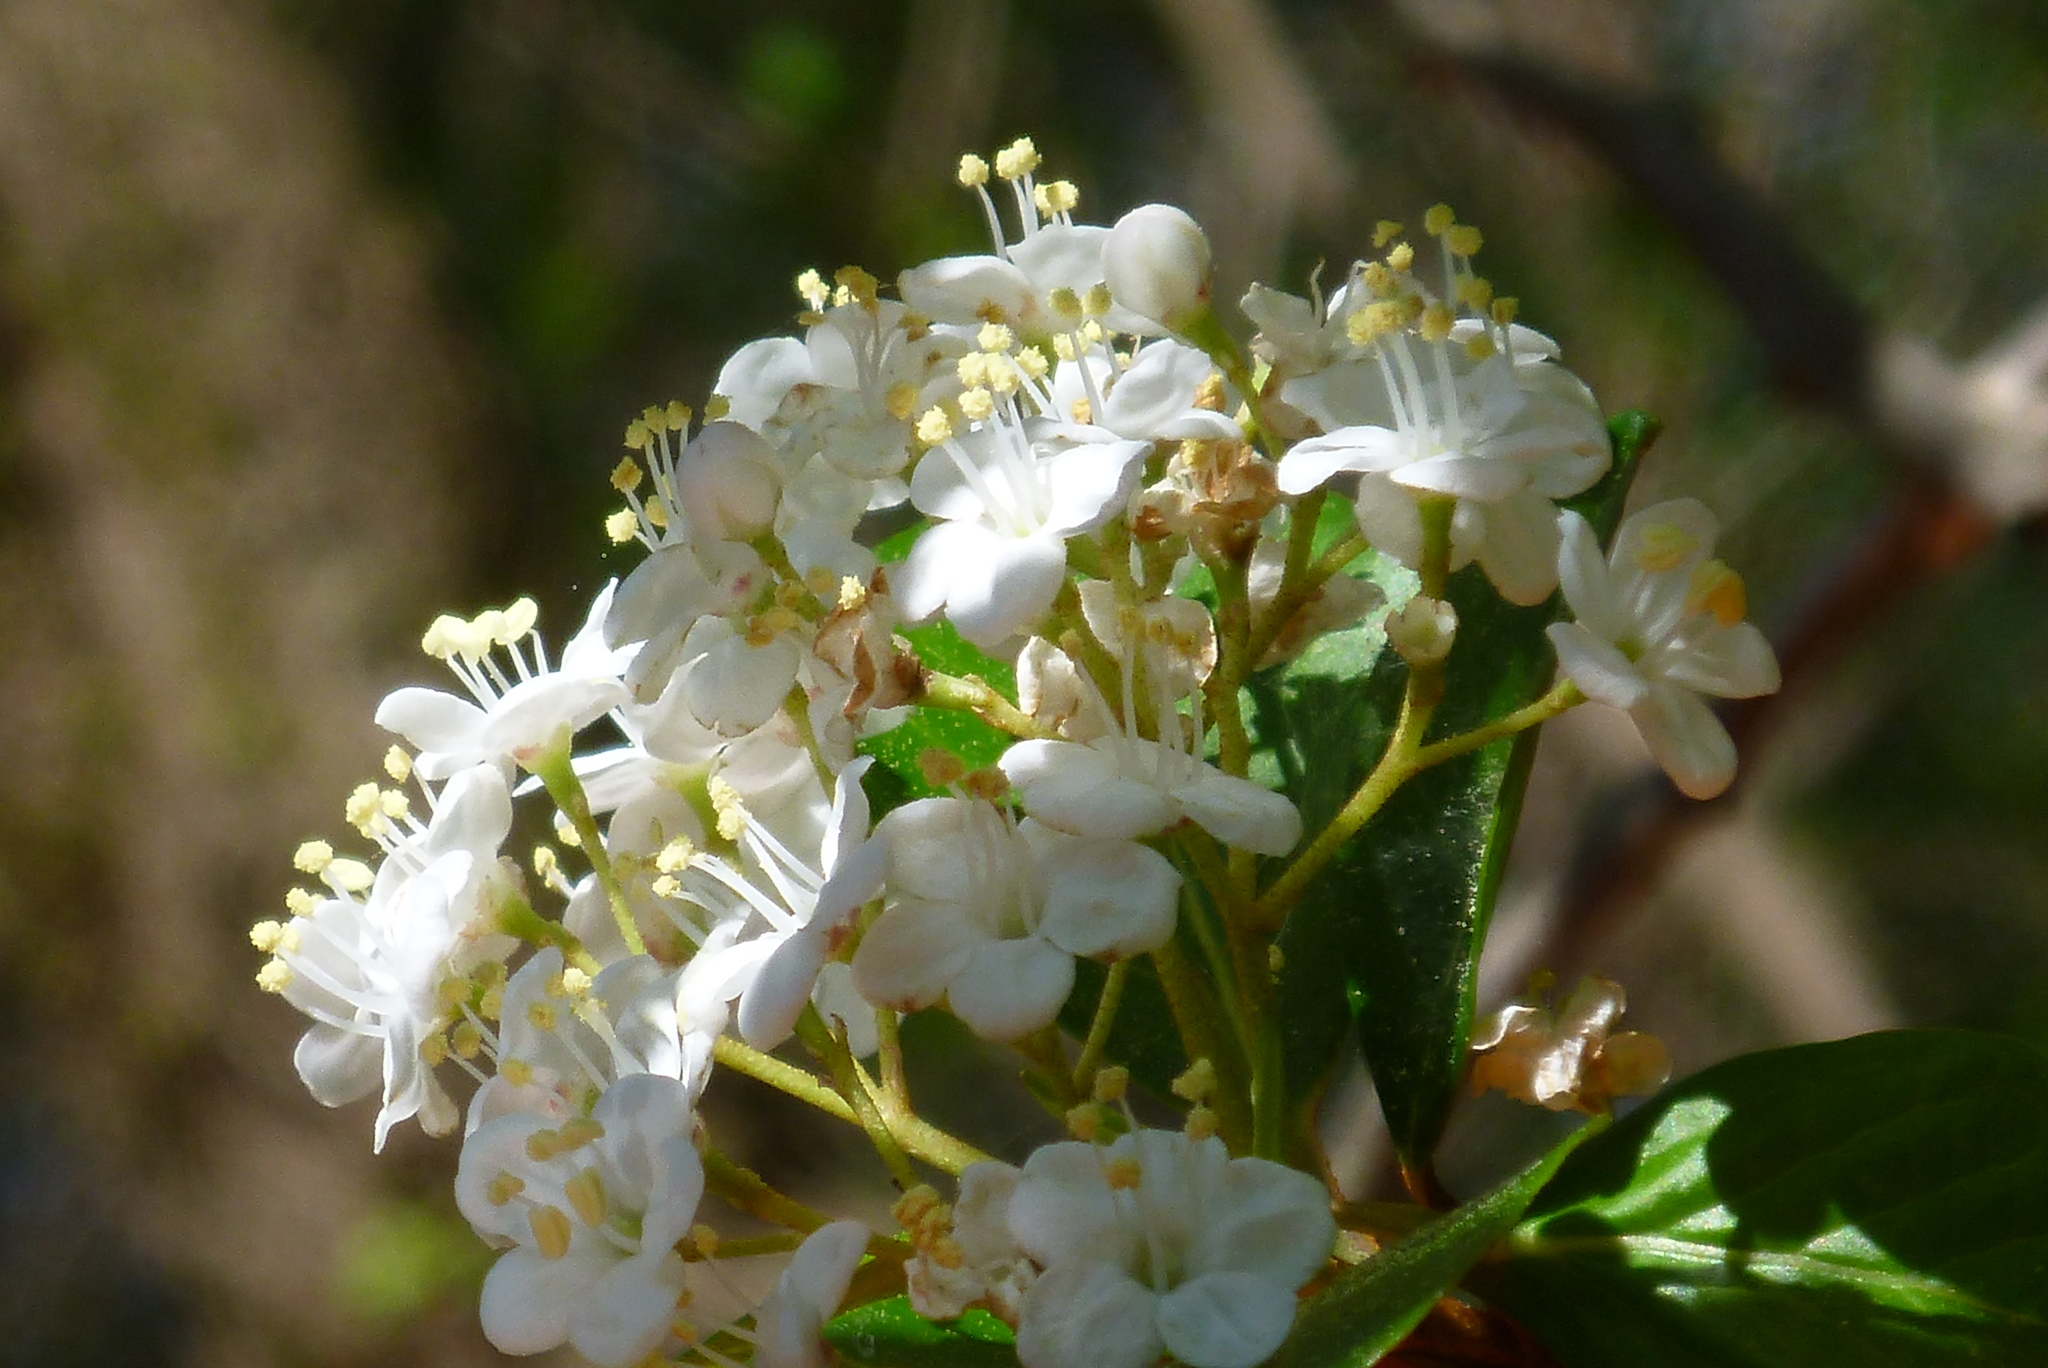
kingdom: Plantae
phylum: Tracheophyta
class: Magnoliopsida
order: Dipsacales
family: Viburnaceae
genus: Viburnum
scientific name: Viburnum obovatum
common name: Walter's viburnum
